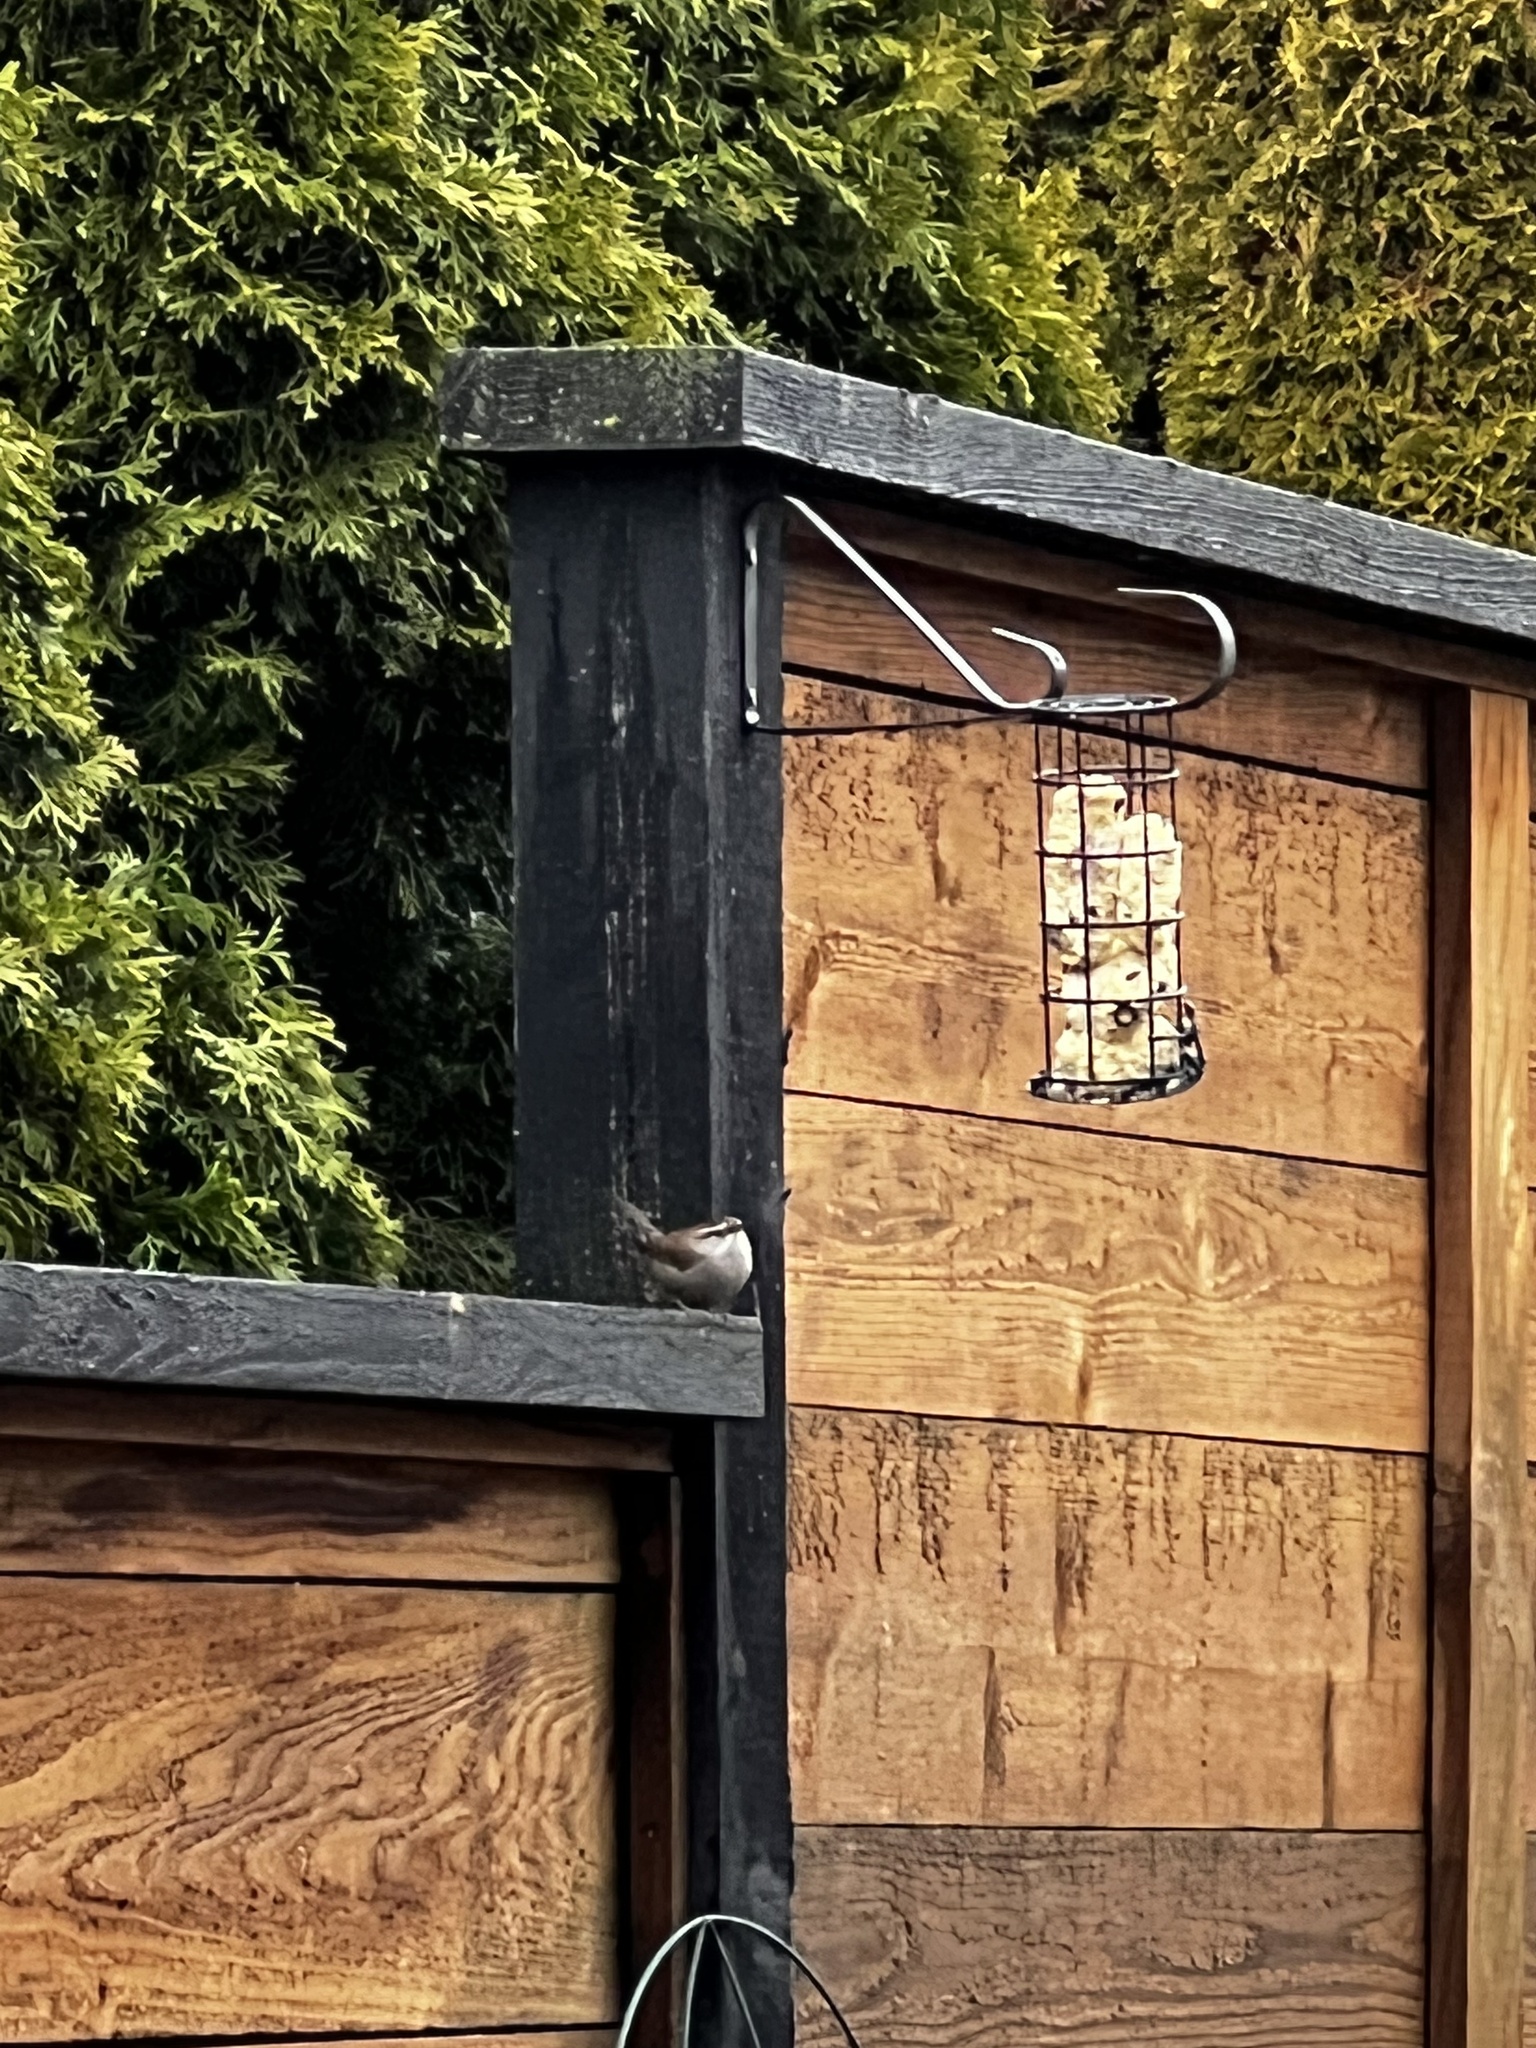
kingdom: Animalia
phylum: Chordata
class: Aves
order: Passeriformes
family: Troglodytidae
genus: Thryomanes
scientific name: Thryomanes bewickii
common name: Bewick's wren
